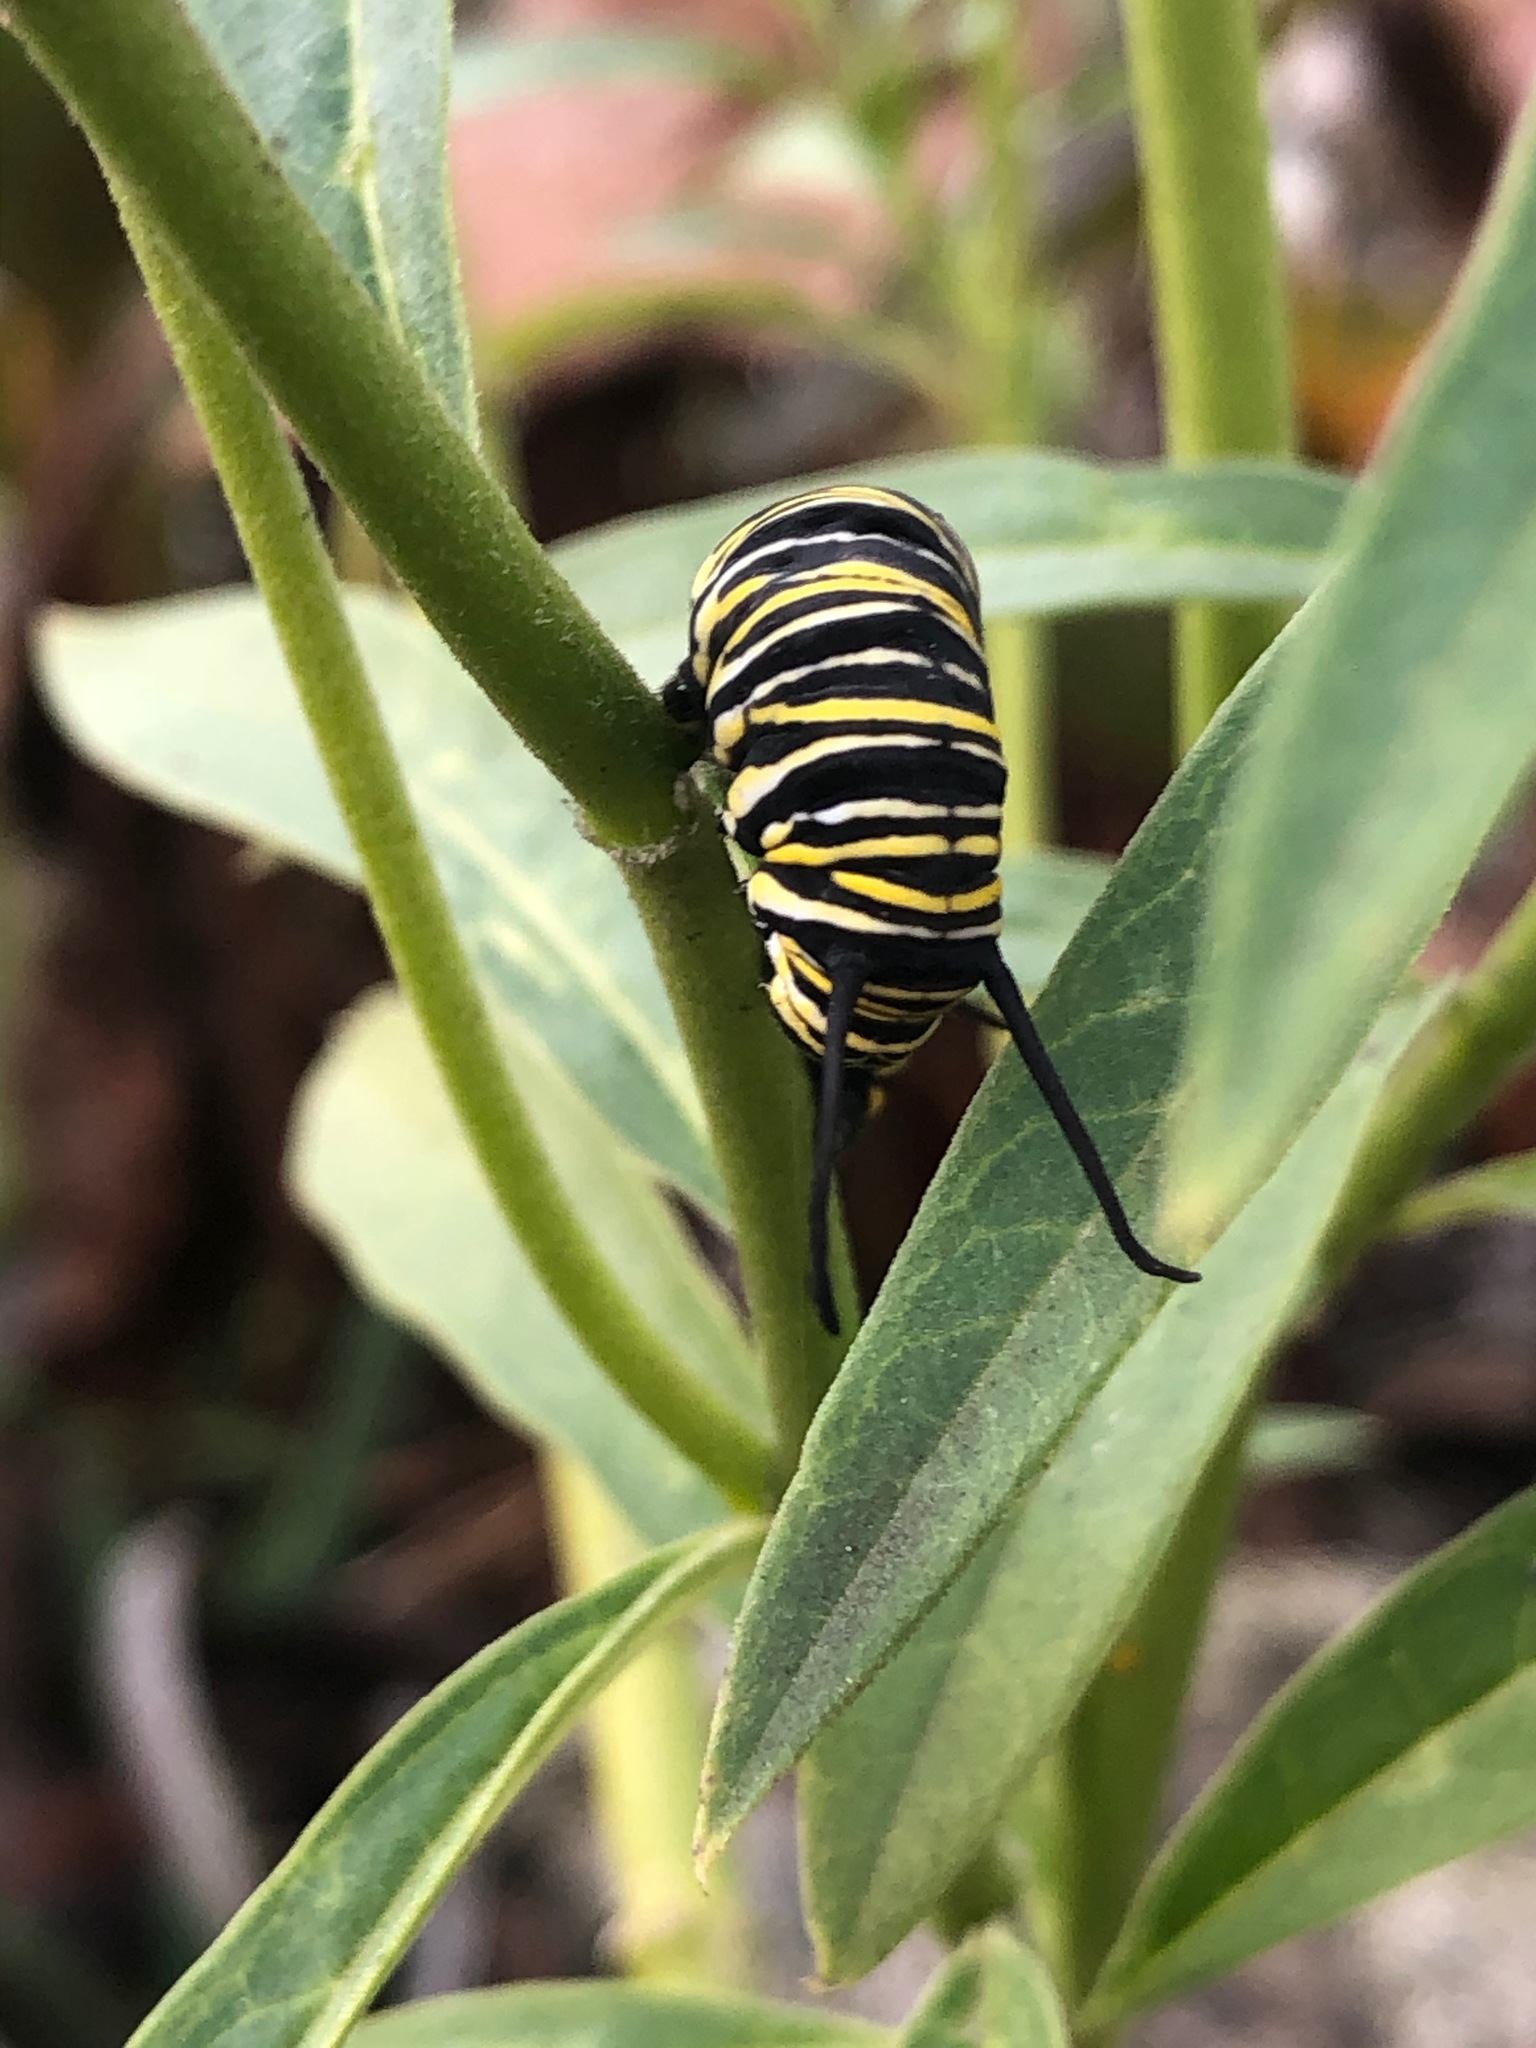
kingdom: Animalia
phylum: Arthropoda
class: Insecta
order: Lepidoptera
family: Nymphalidae
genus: Danaus
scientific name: Danaus plexippus
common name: Monarch
